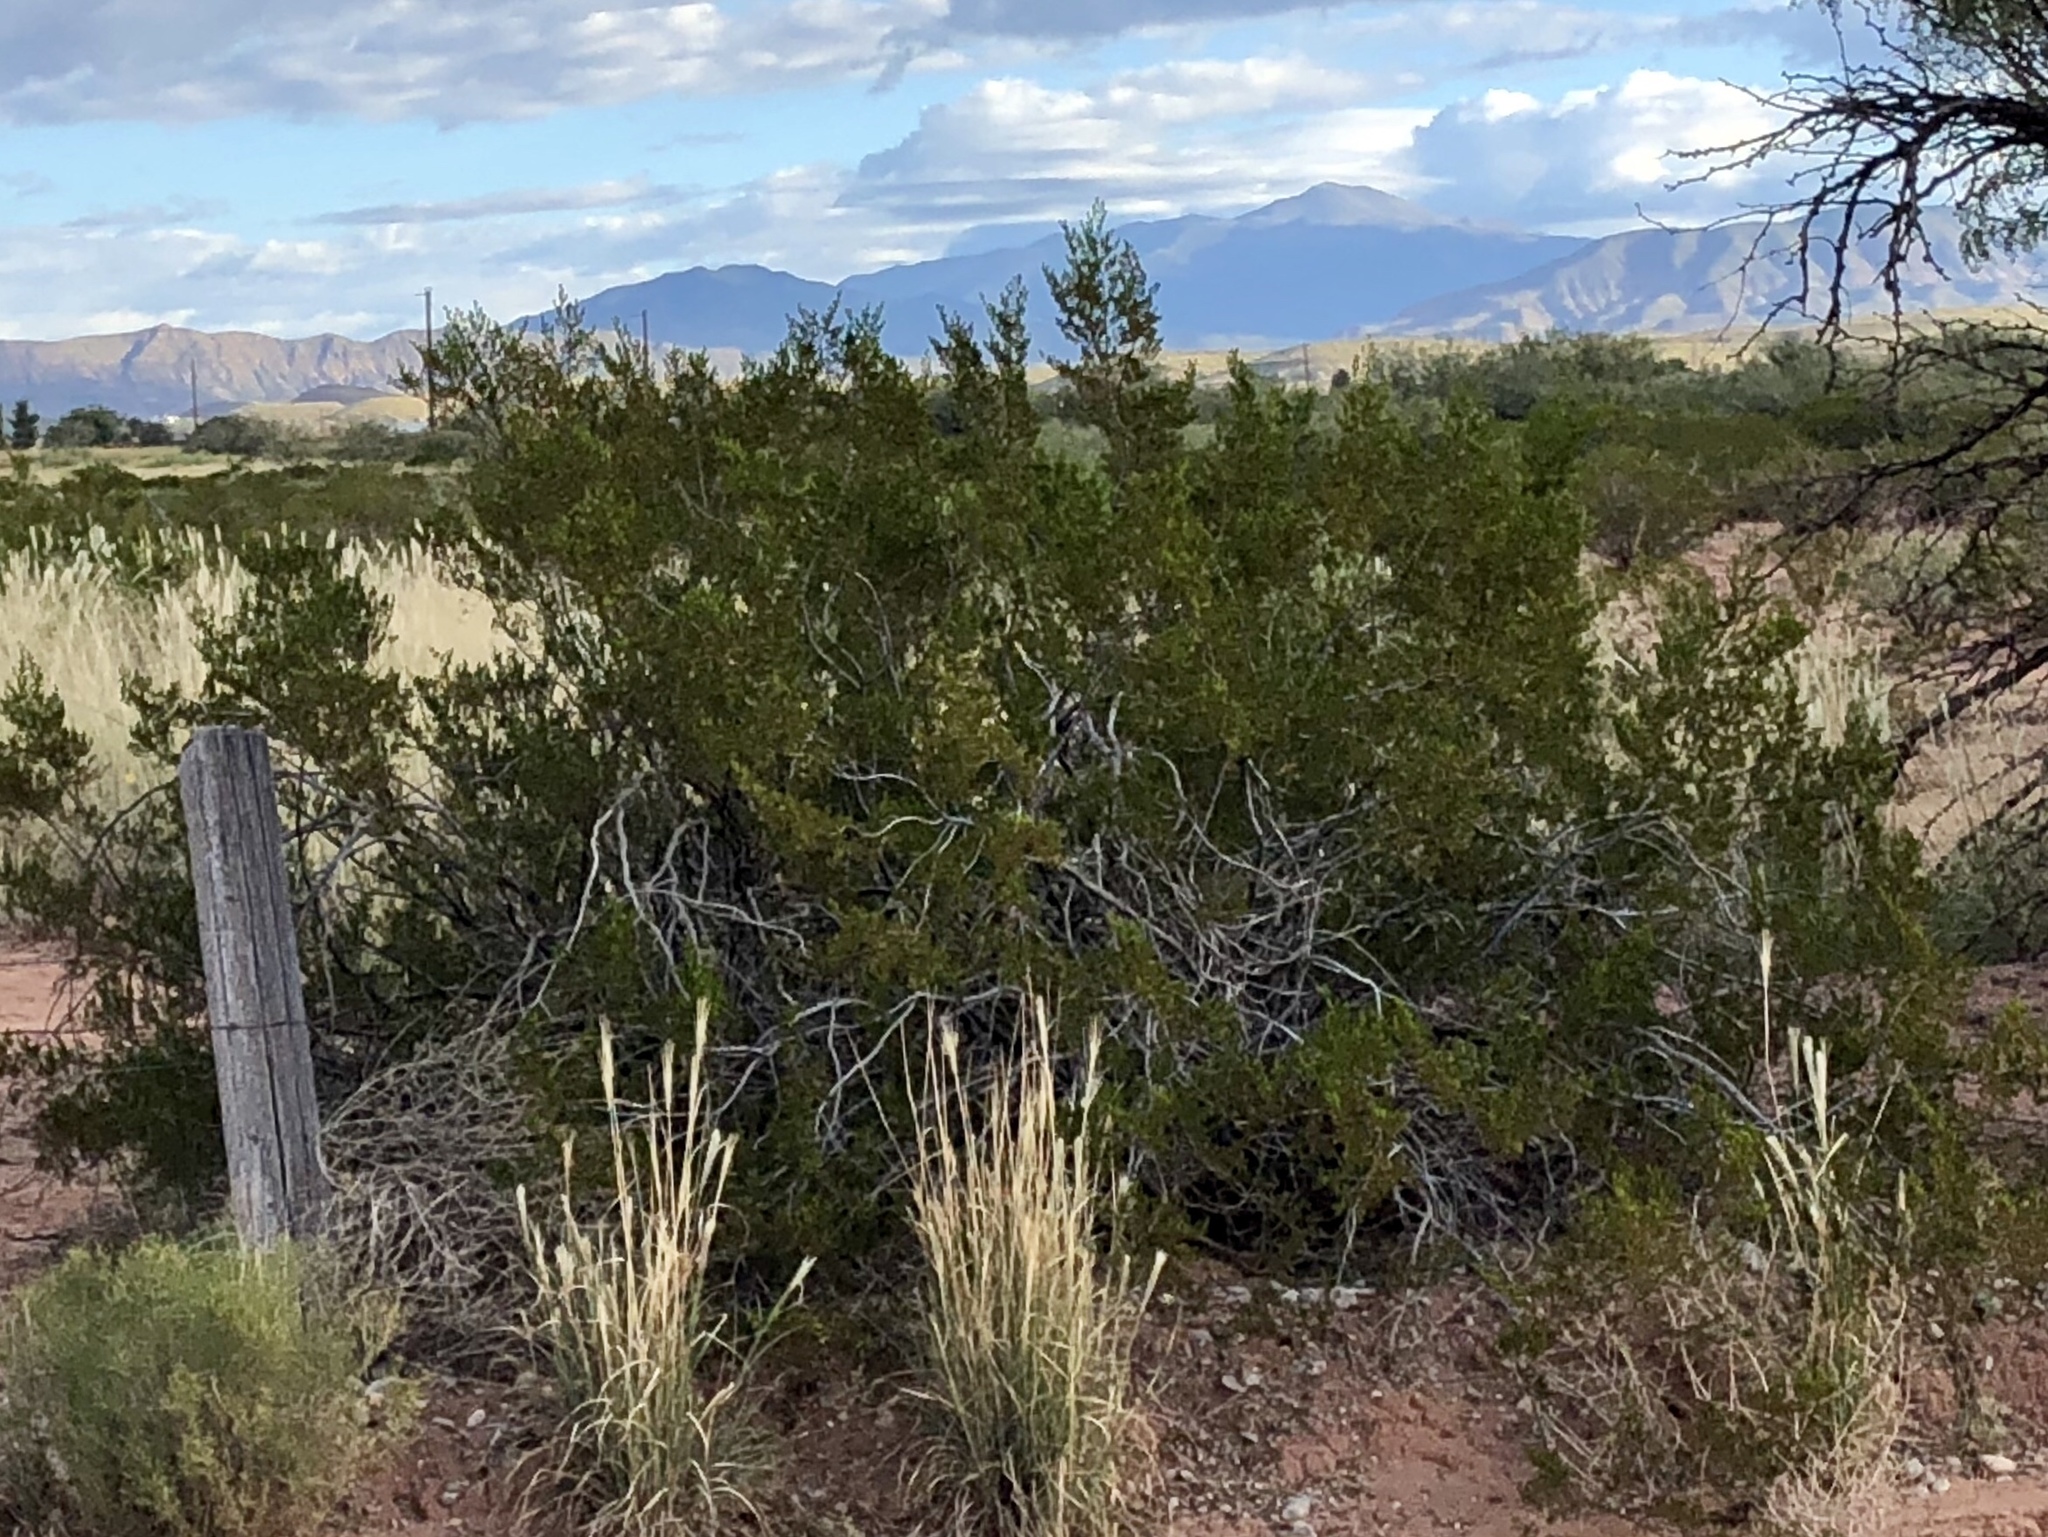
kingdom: Plantae
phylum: Tracheophyta
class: Magnoliopsida
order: Zygophyllales
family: Zygophyllaceae
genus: Larrea
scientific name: Larrea tridentata
